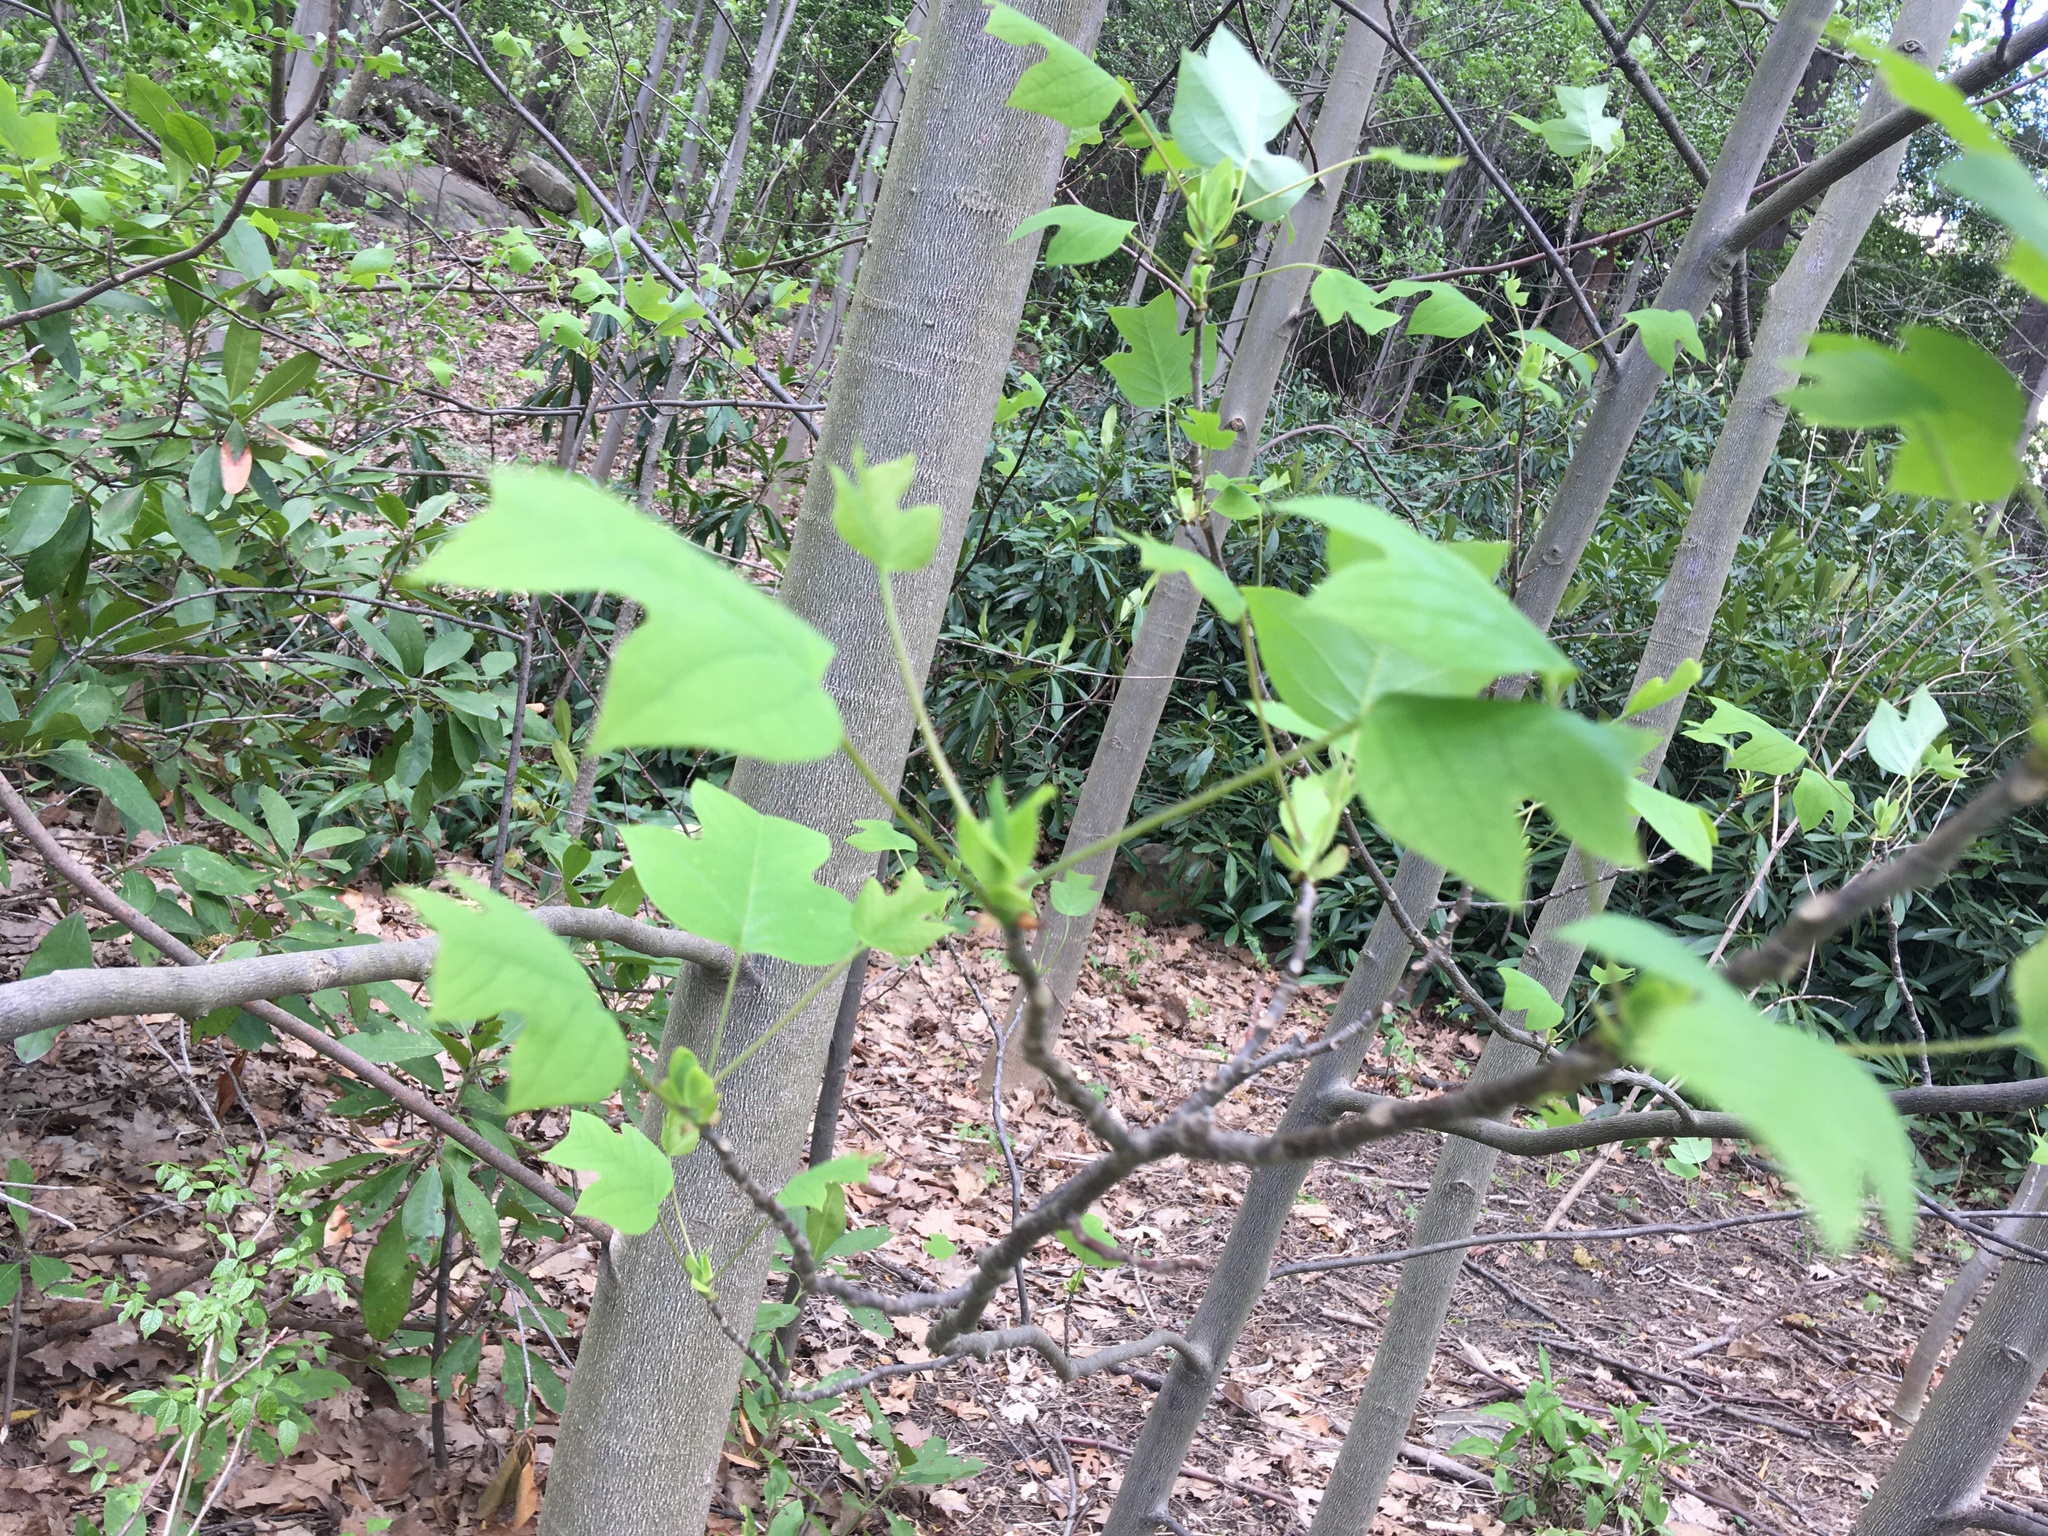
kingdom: Plantae
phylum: Tracheophyta
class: Magnoliopsida
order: Magnoliales
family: Magnoliaceae
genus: Liriodendron
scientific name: Liriodendron tulipifera
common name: Tulip tree
